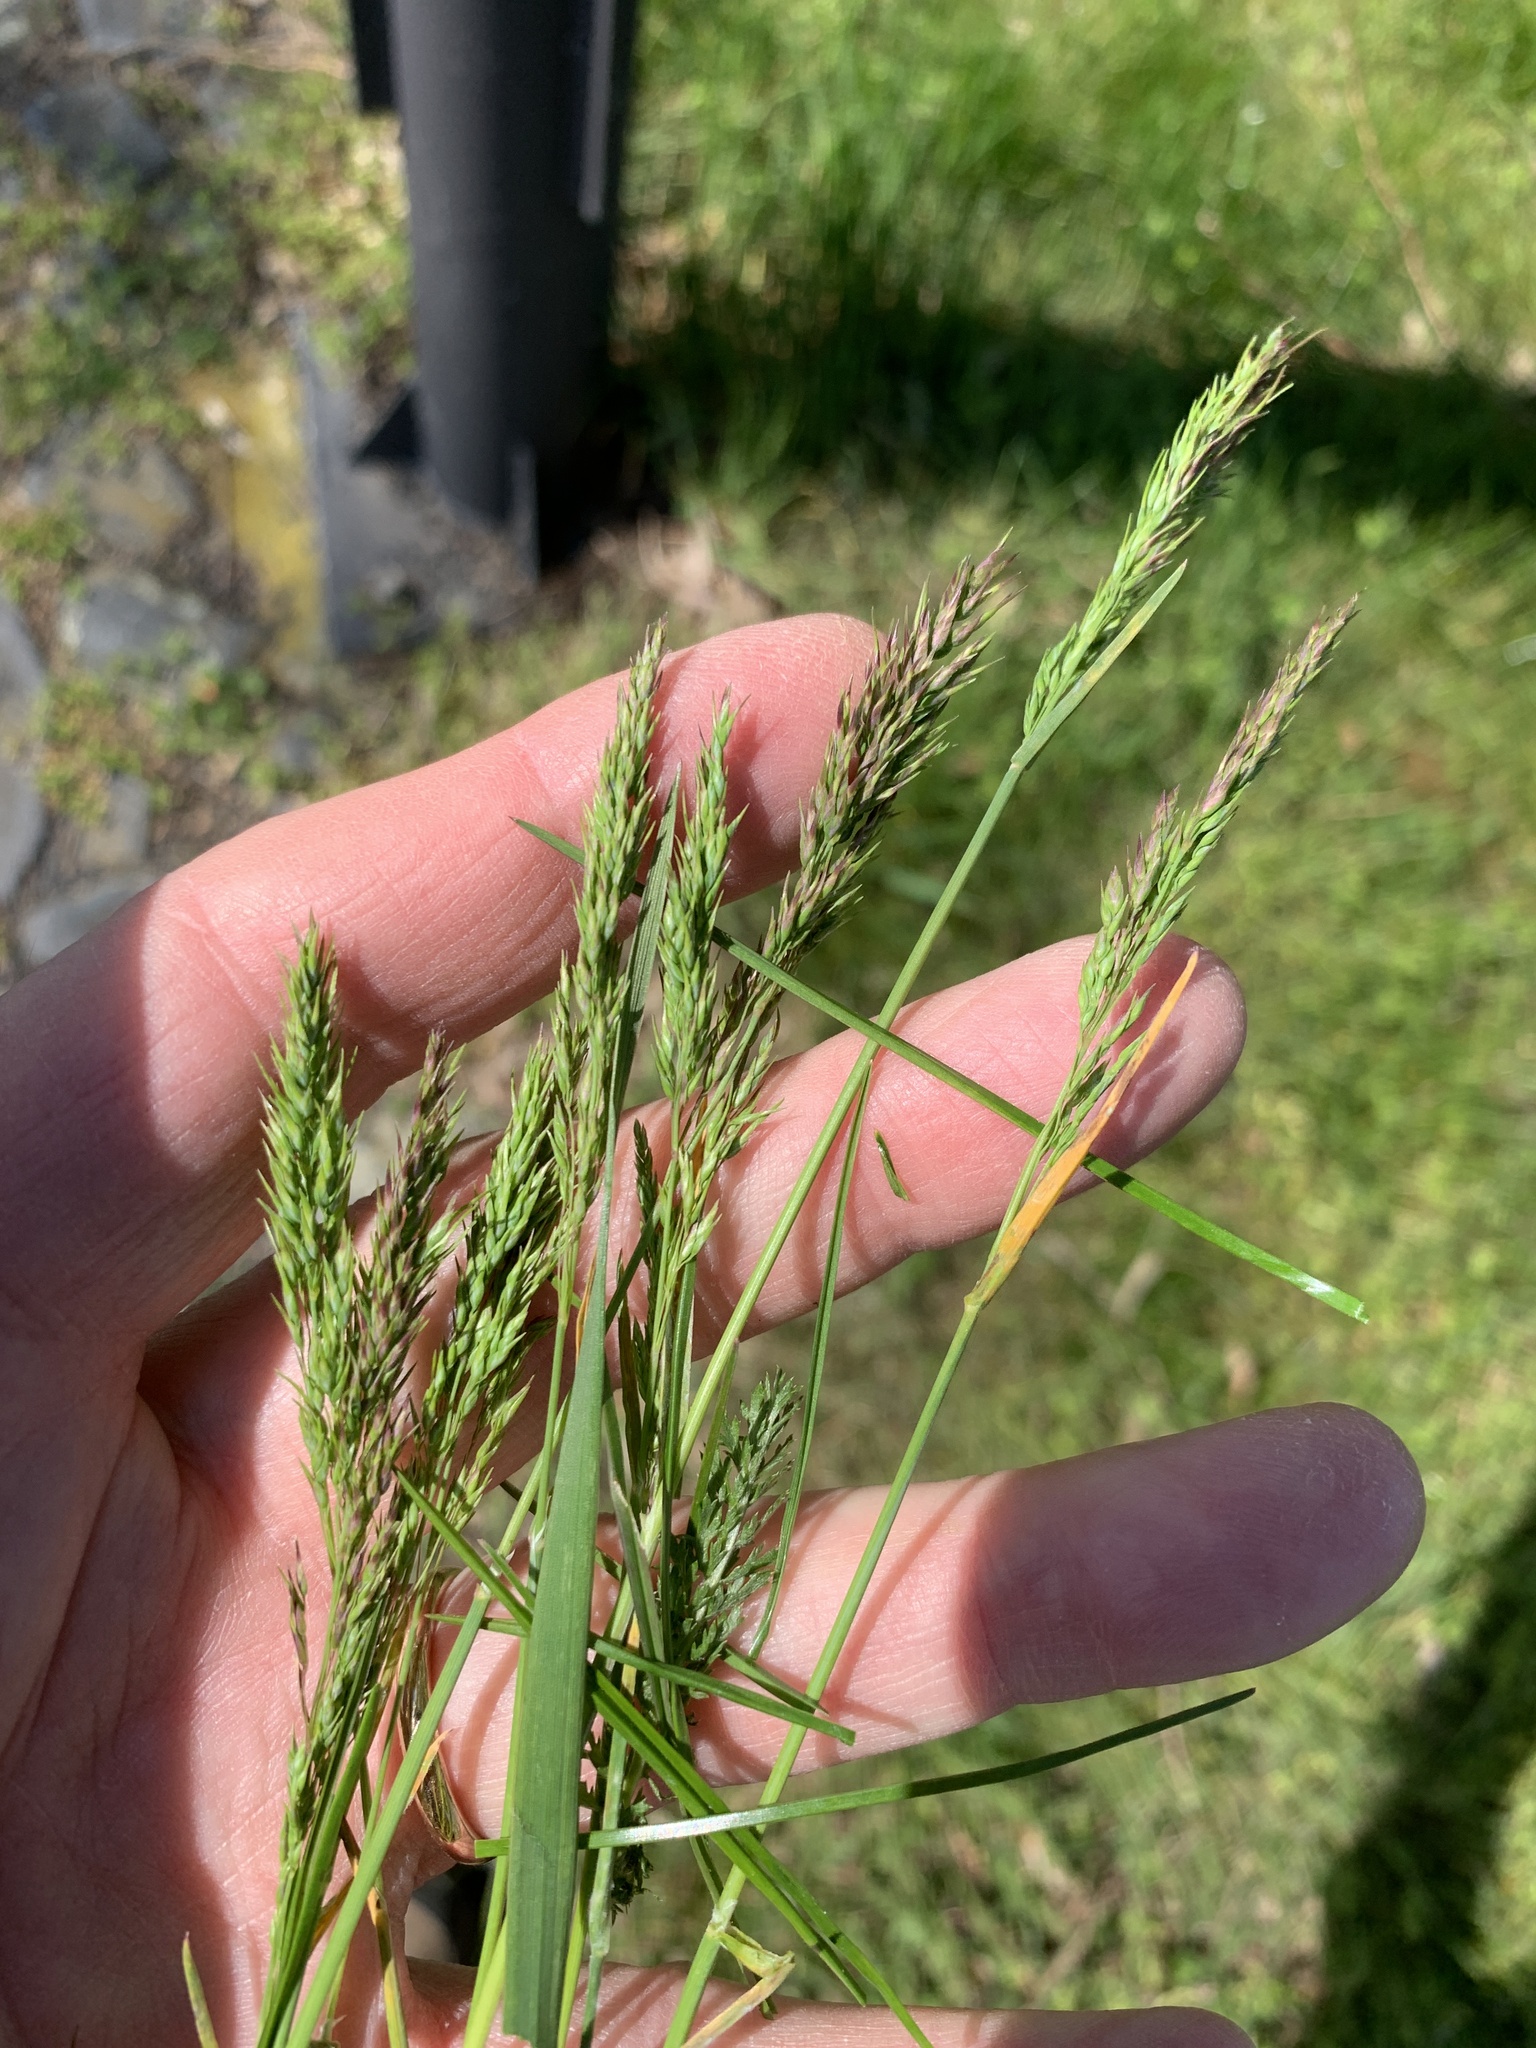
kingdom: Plantae
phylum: Tracheophyta
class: Liliopsida
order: Poales
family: Poaceae
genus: Poa
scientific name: Poa bulbosa
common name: Bulbous bluegrass
